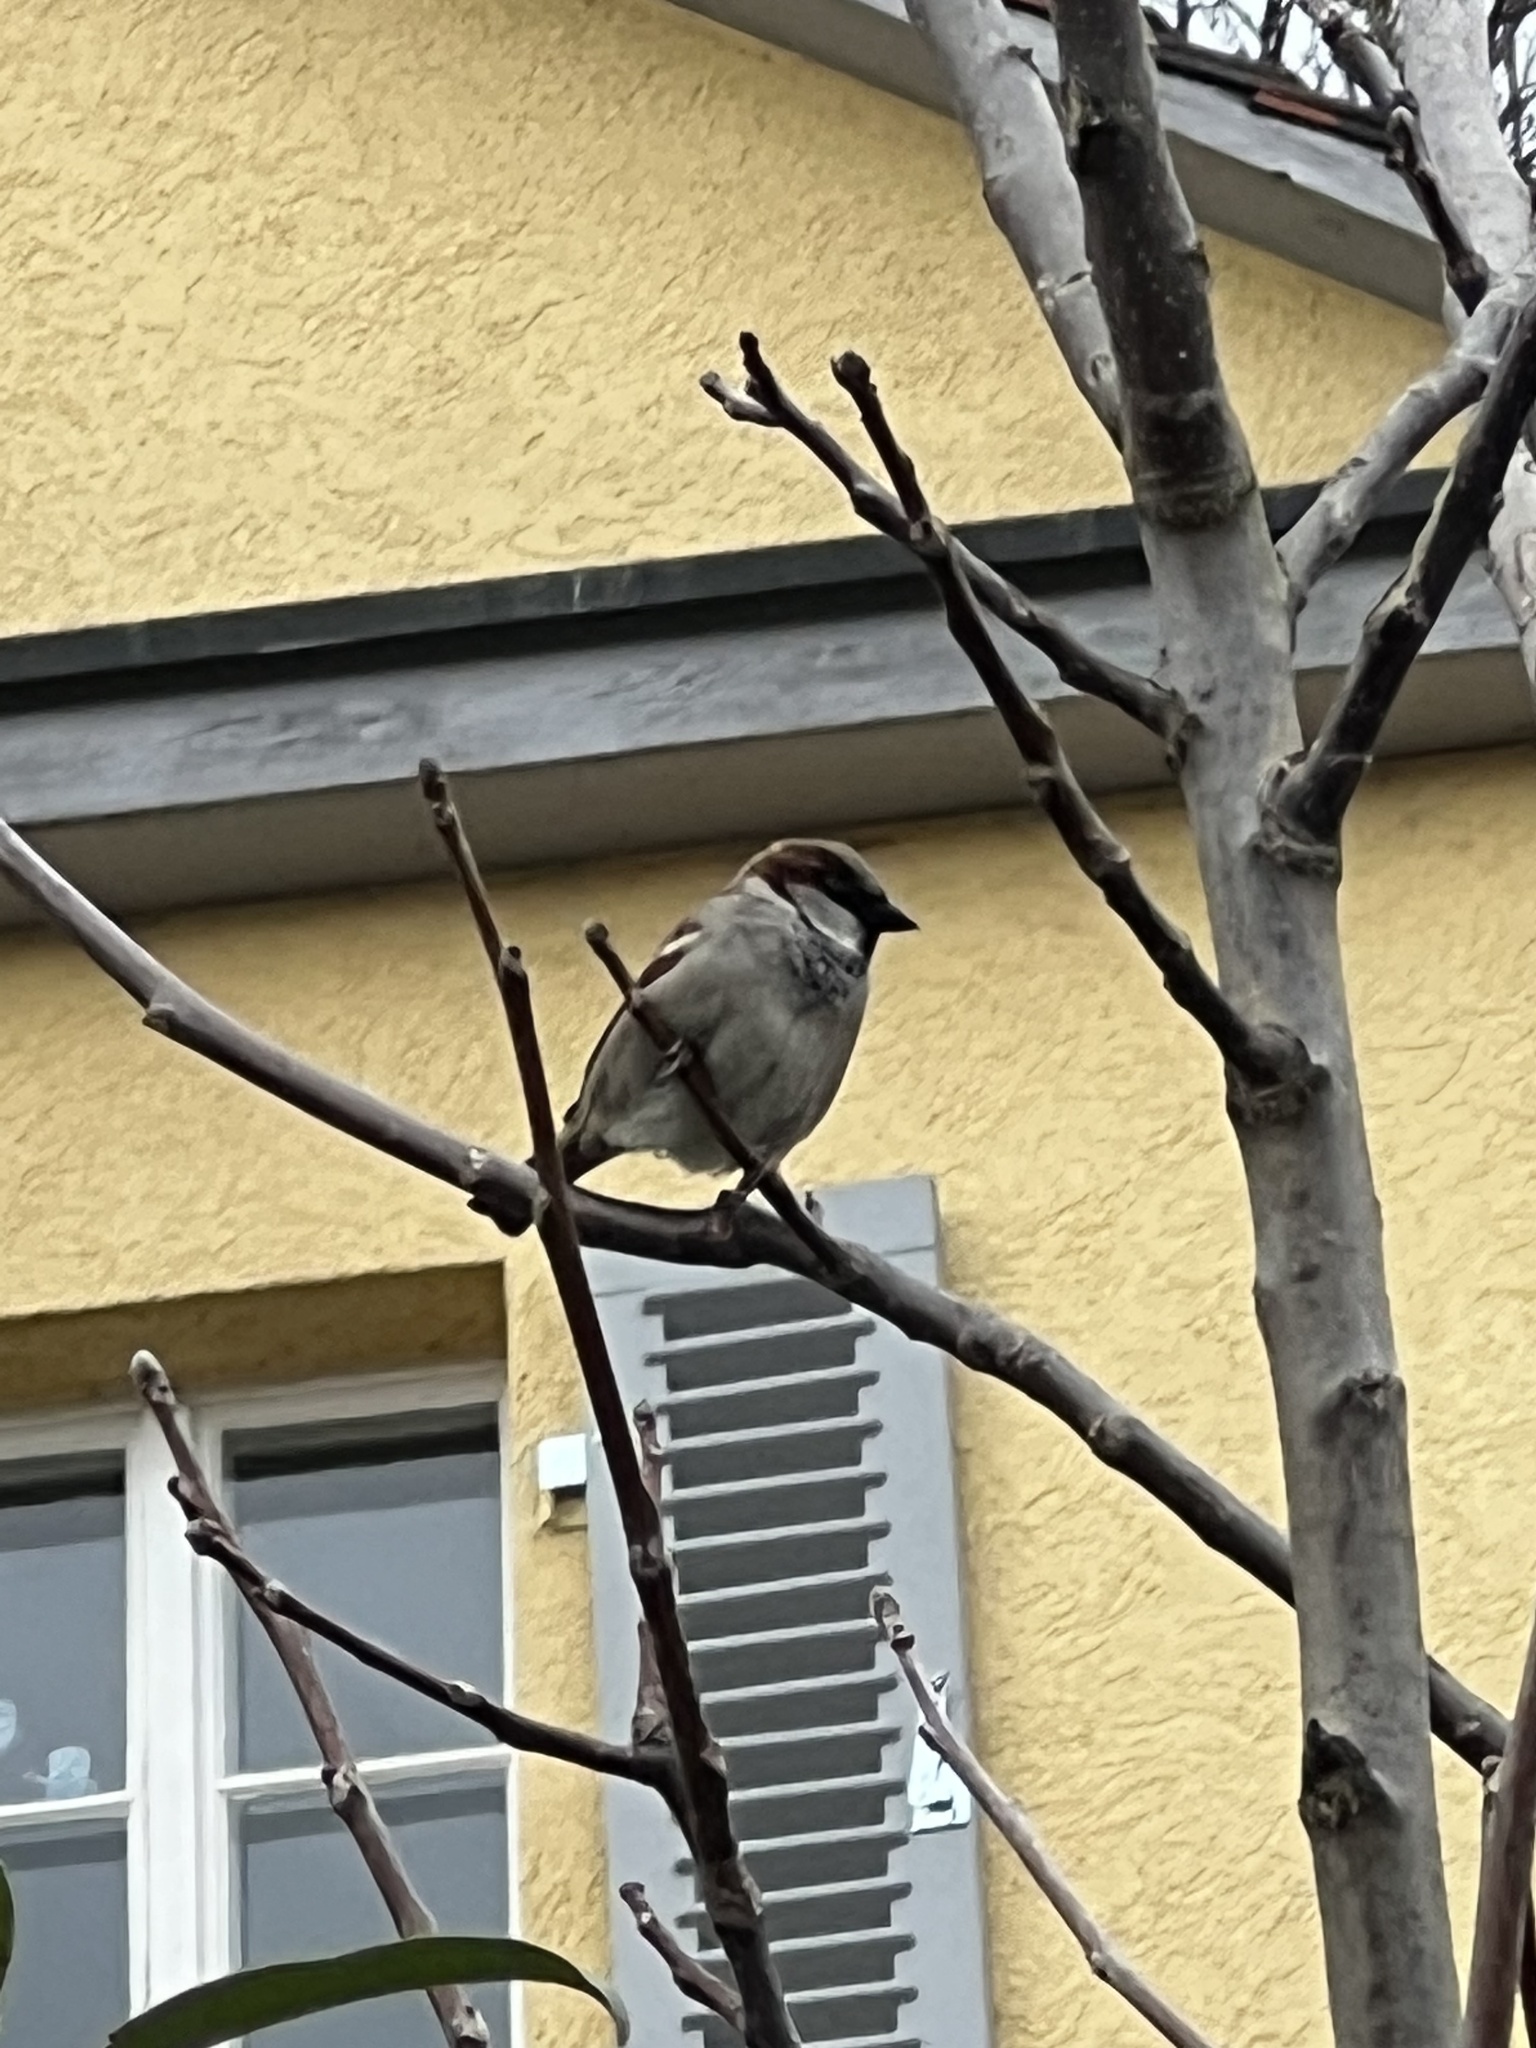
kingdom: Animalia
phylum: Chordata
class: Aves
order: Passeriformes
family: Passeridae
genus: Passer
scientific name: Passer domesticus
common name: House sparrow
